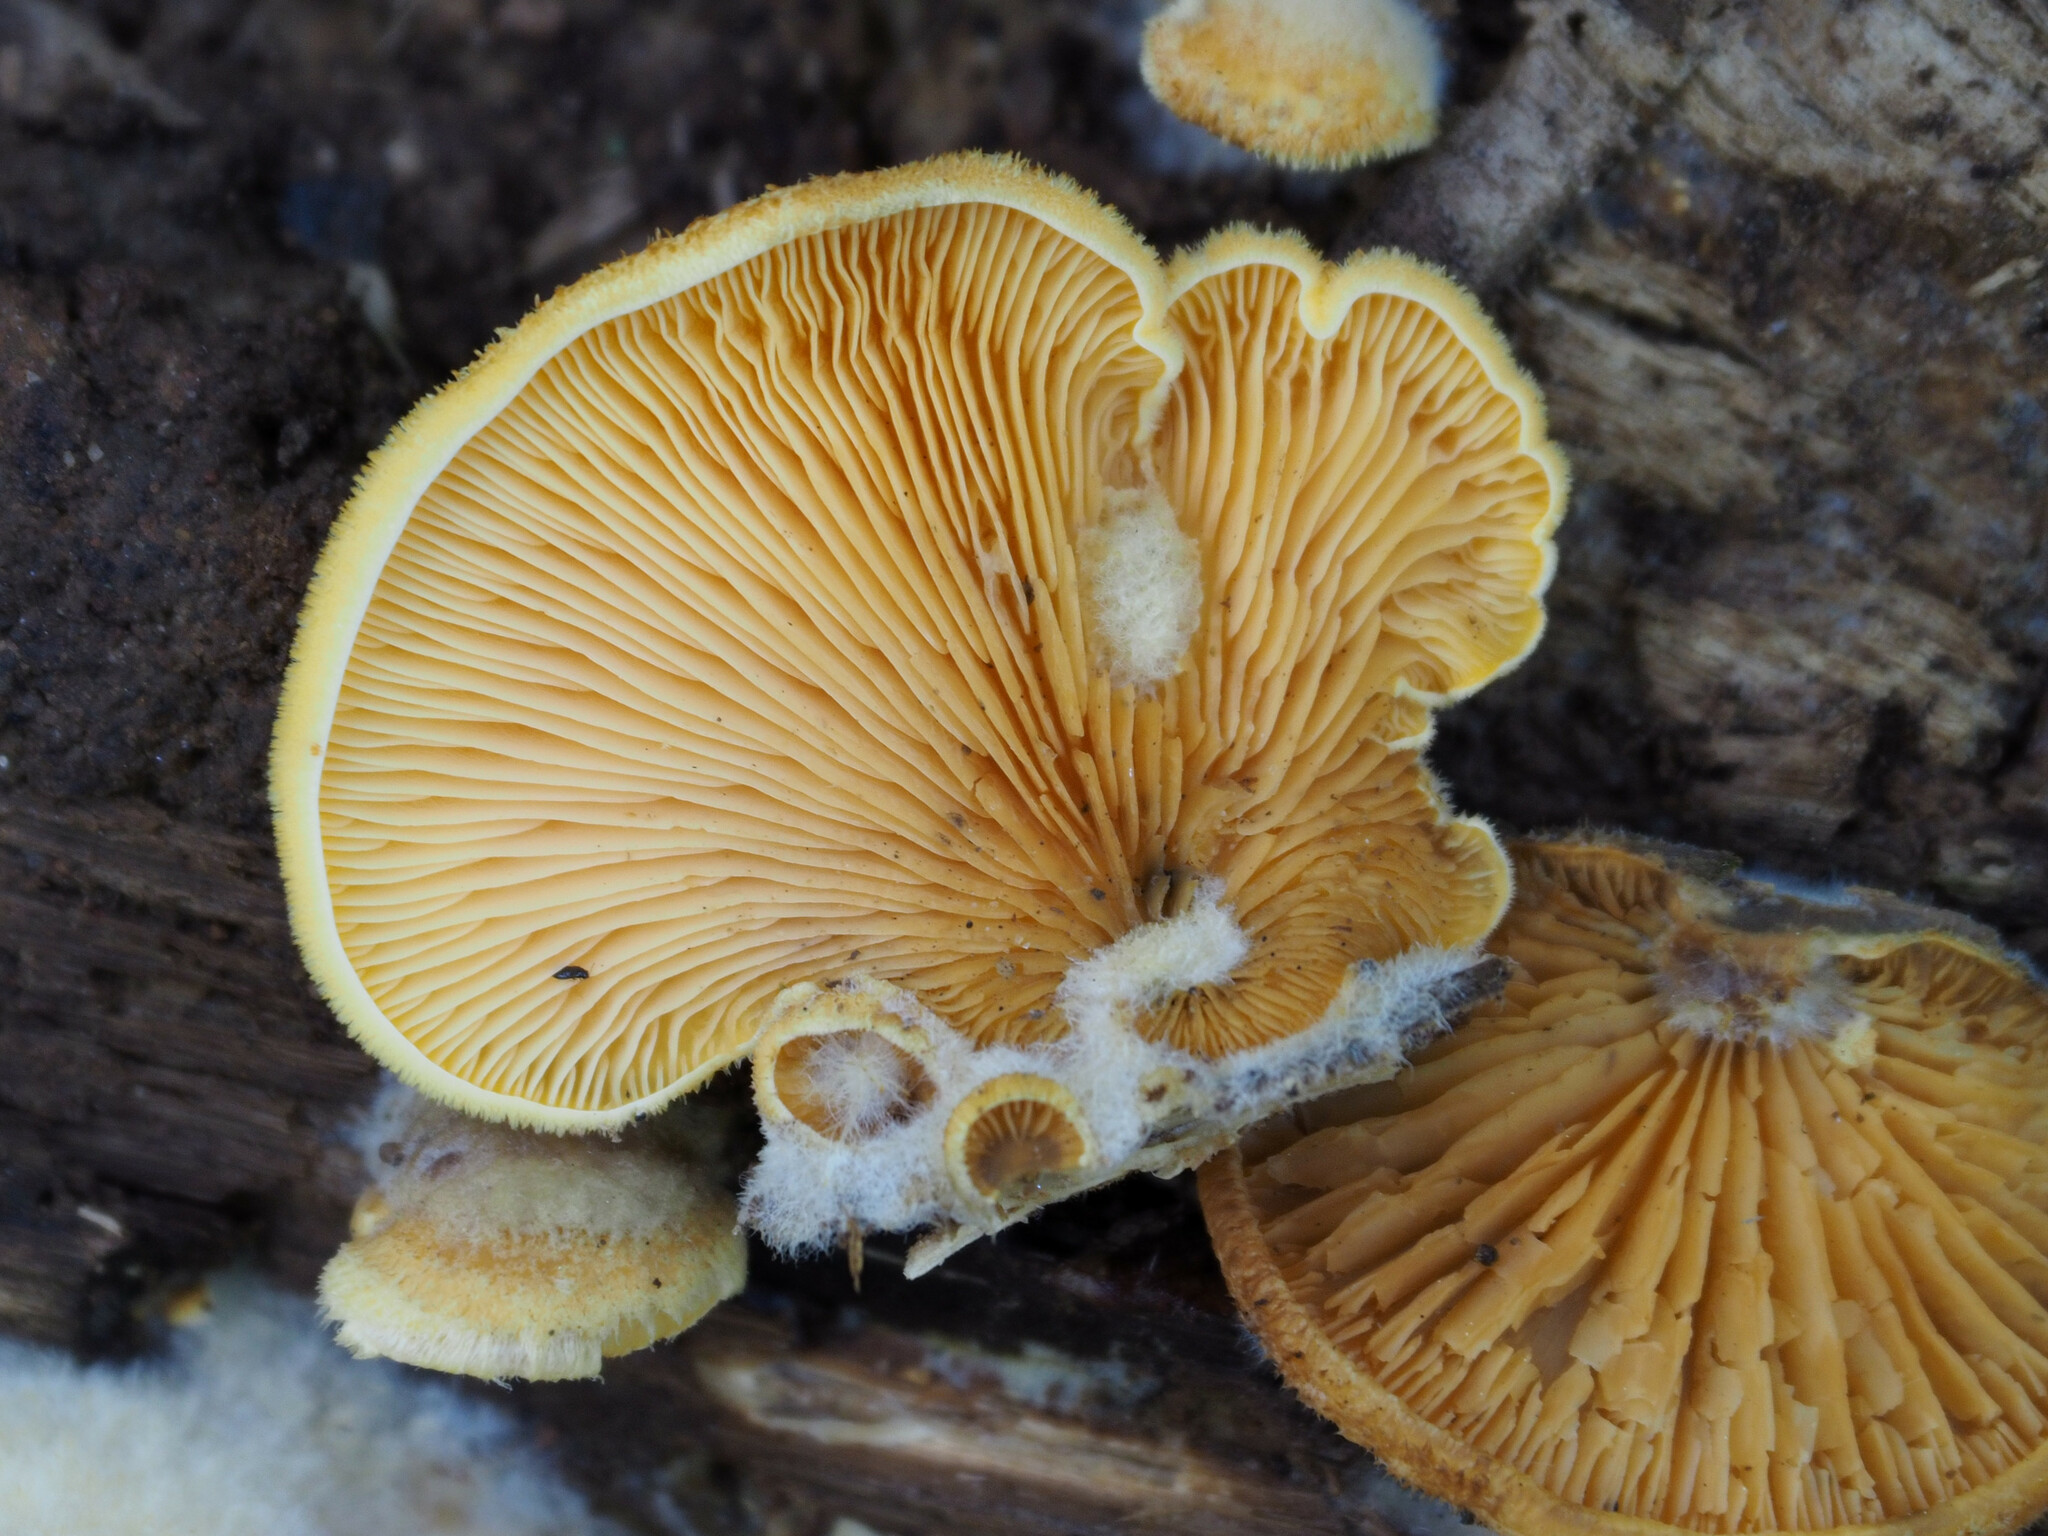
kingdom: Fungi
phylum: Basidiomycota
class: Agaricomycetes
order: Agaricales
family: Phyllotopsidaceae
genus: Phyllotopsis
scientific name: Phyllotopsis nidulans
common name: Orange mock oyster
